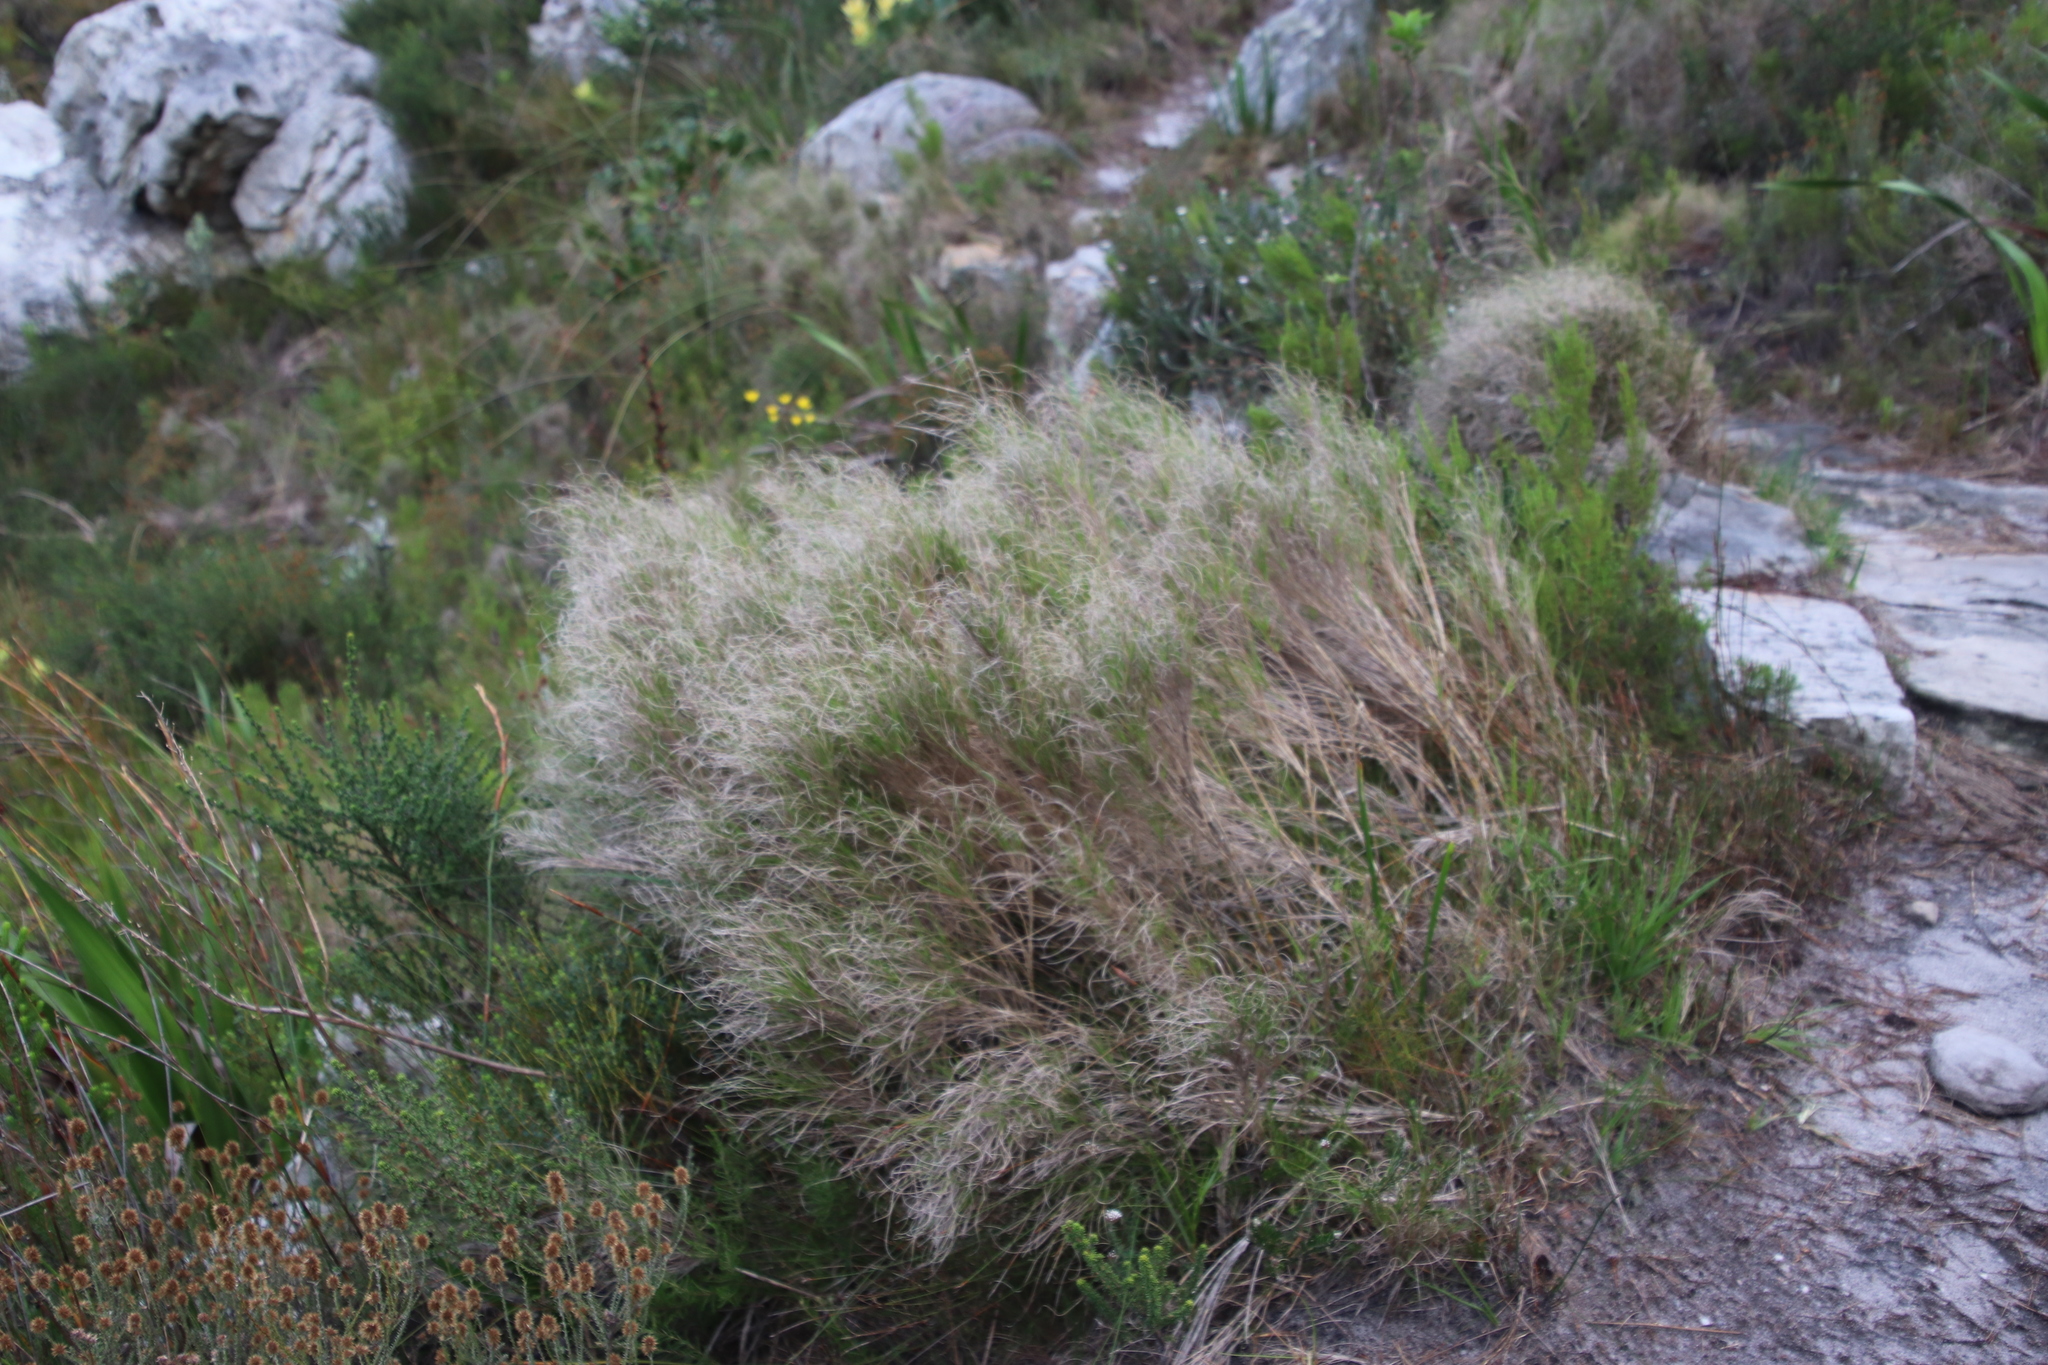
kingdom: Plantae
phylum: Tracheophyta
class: Liliopsida
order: Poales
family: Poaceae
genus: Pseudopentameris
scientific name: Pseudopentameris macrantha
